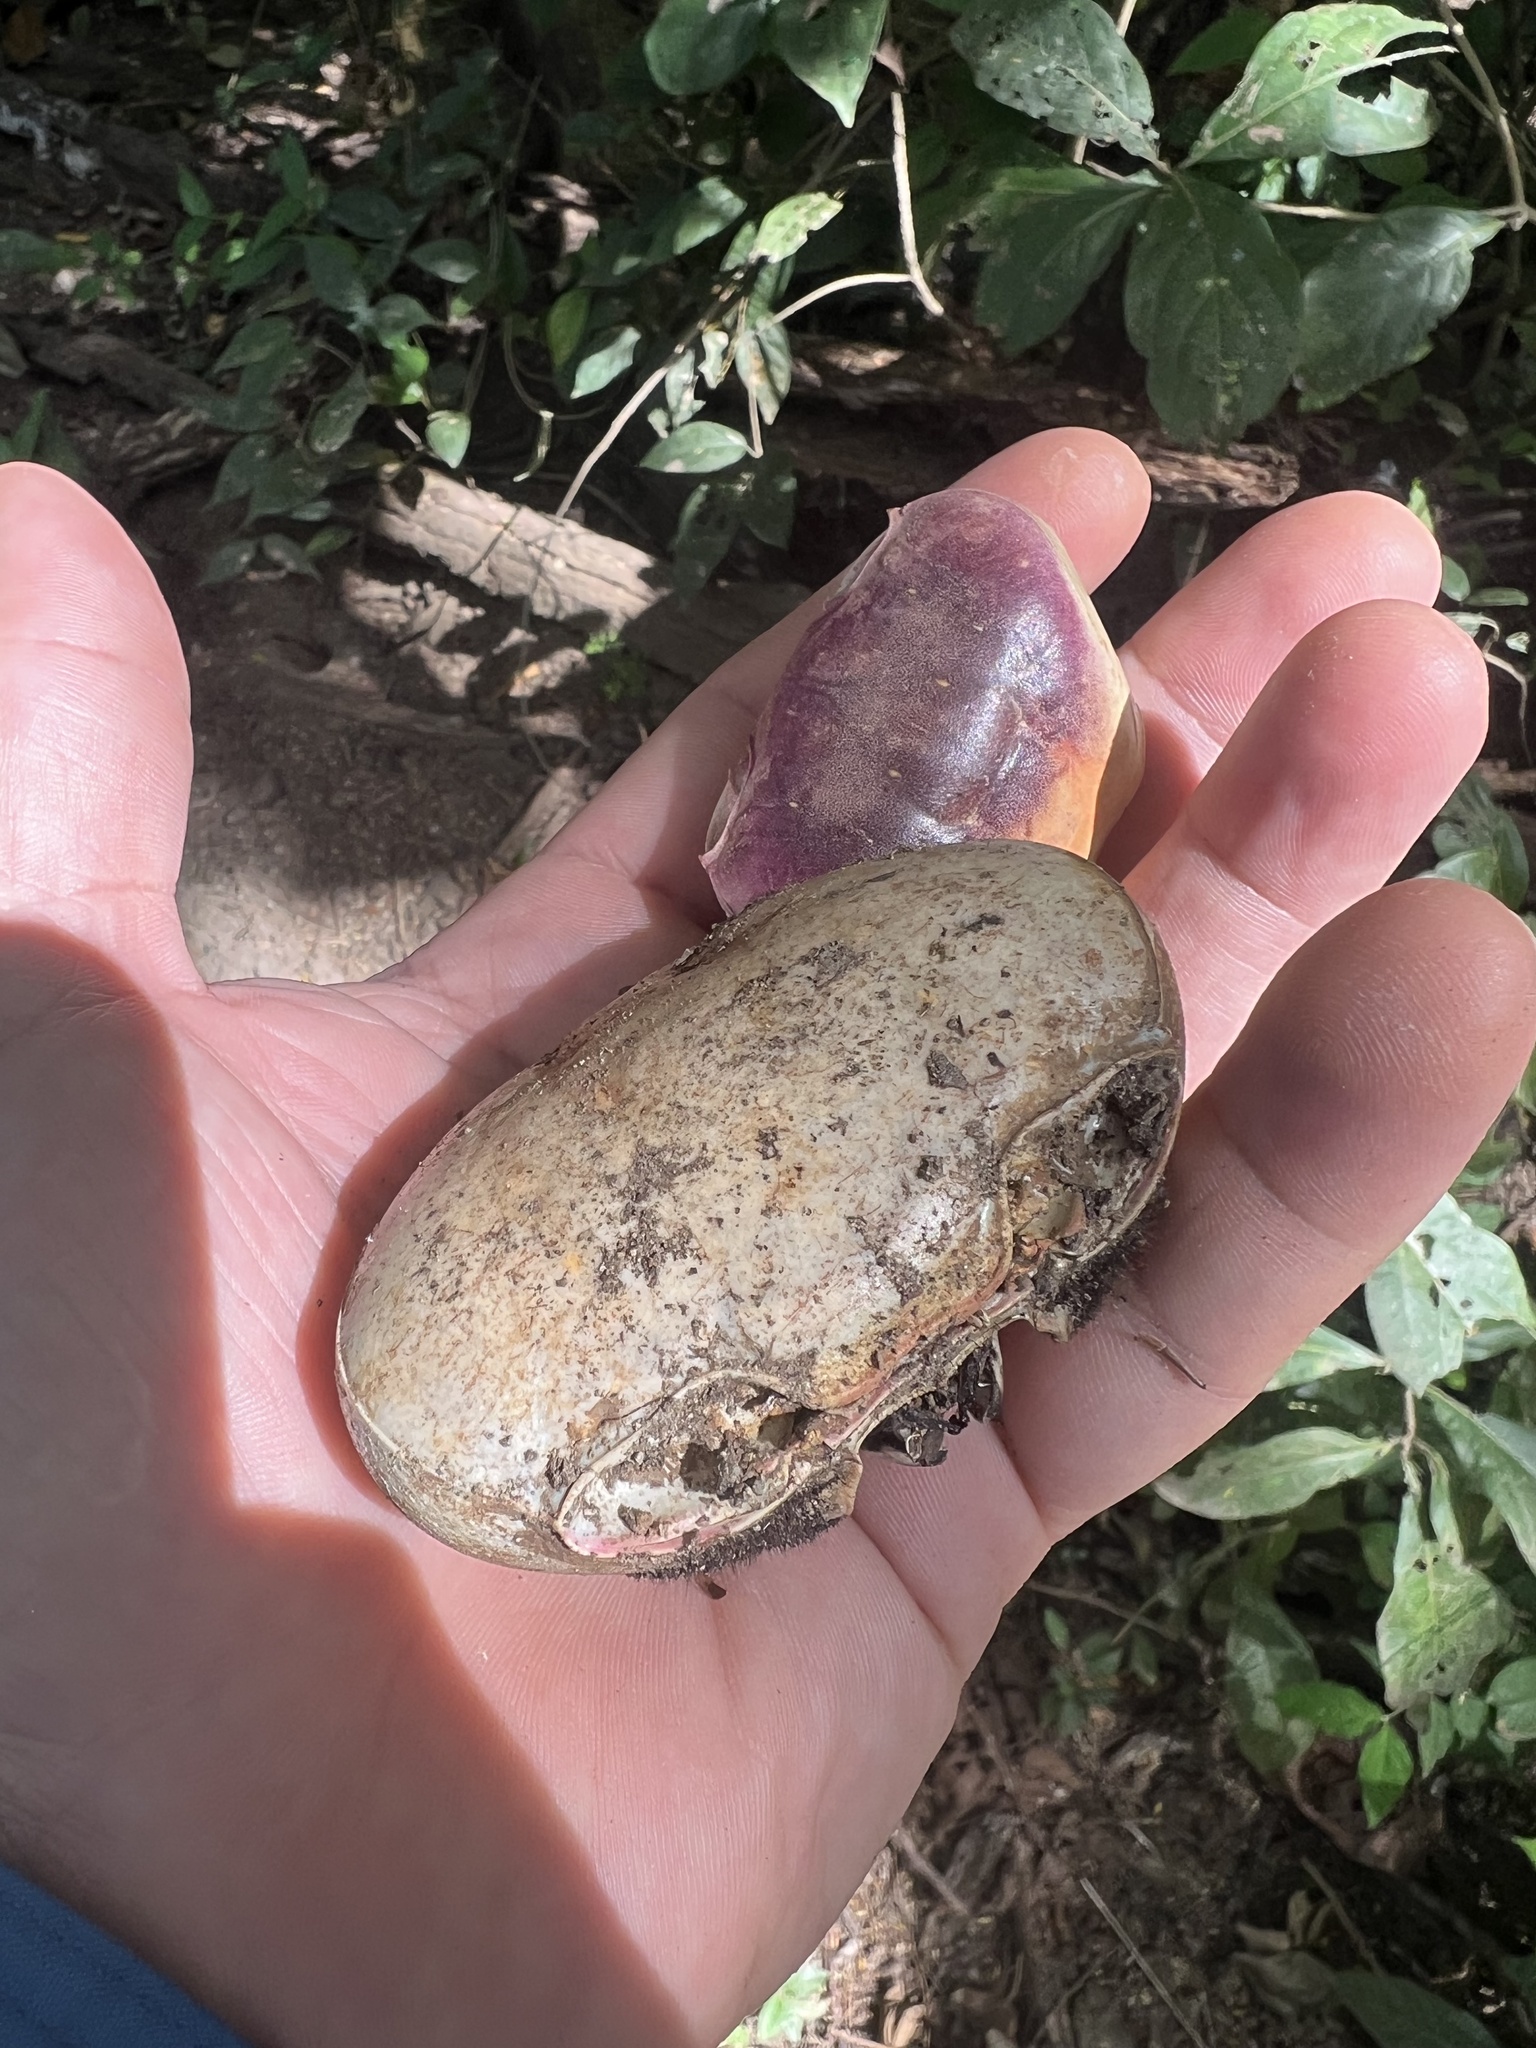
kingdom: Animalia
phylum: Arthropoda
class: Malacostraca
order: Decapoda
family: Gecarcinidae
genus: Cardisoma
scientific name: Cardisoma crassum
